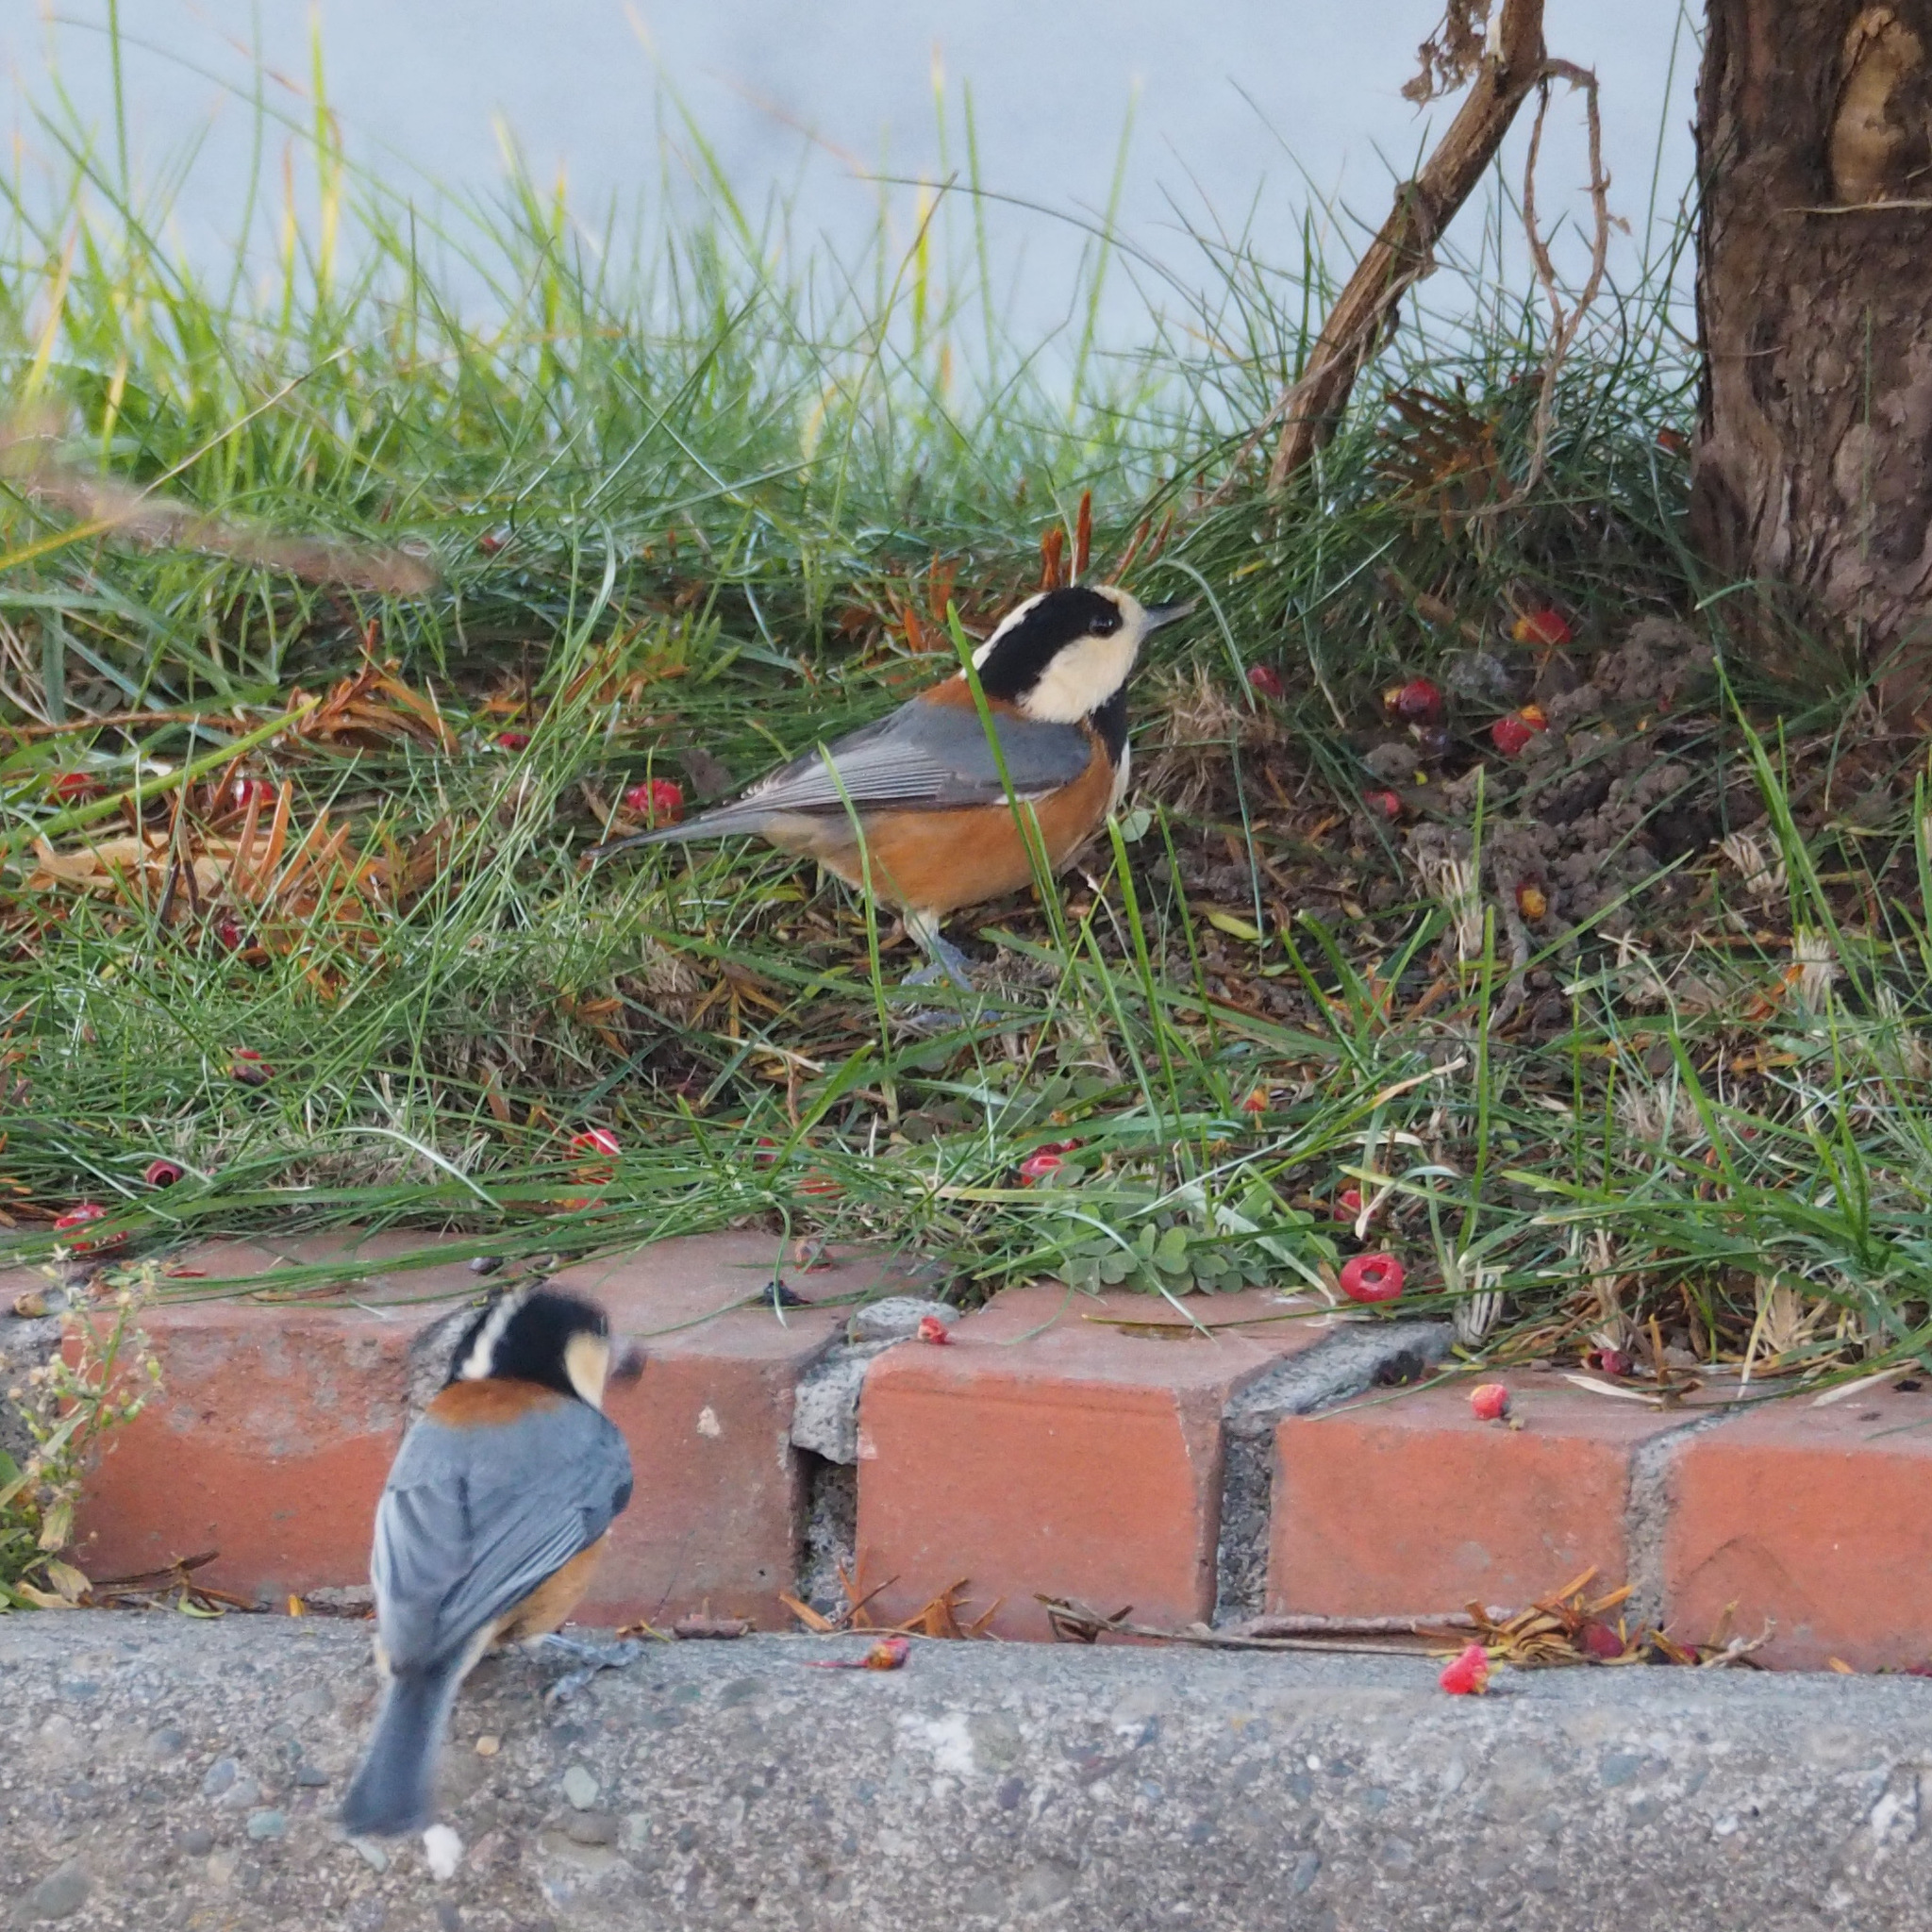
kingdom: Animalia
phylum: Chordata
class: Aves
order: Passeriformes
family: Paridae
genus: Poecile
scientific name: Poecile varius
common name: Varied tit
